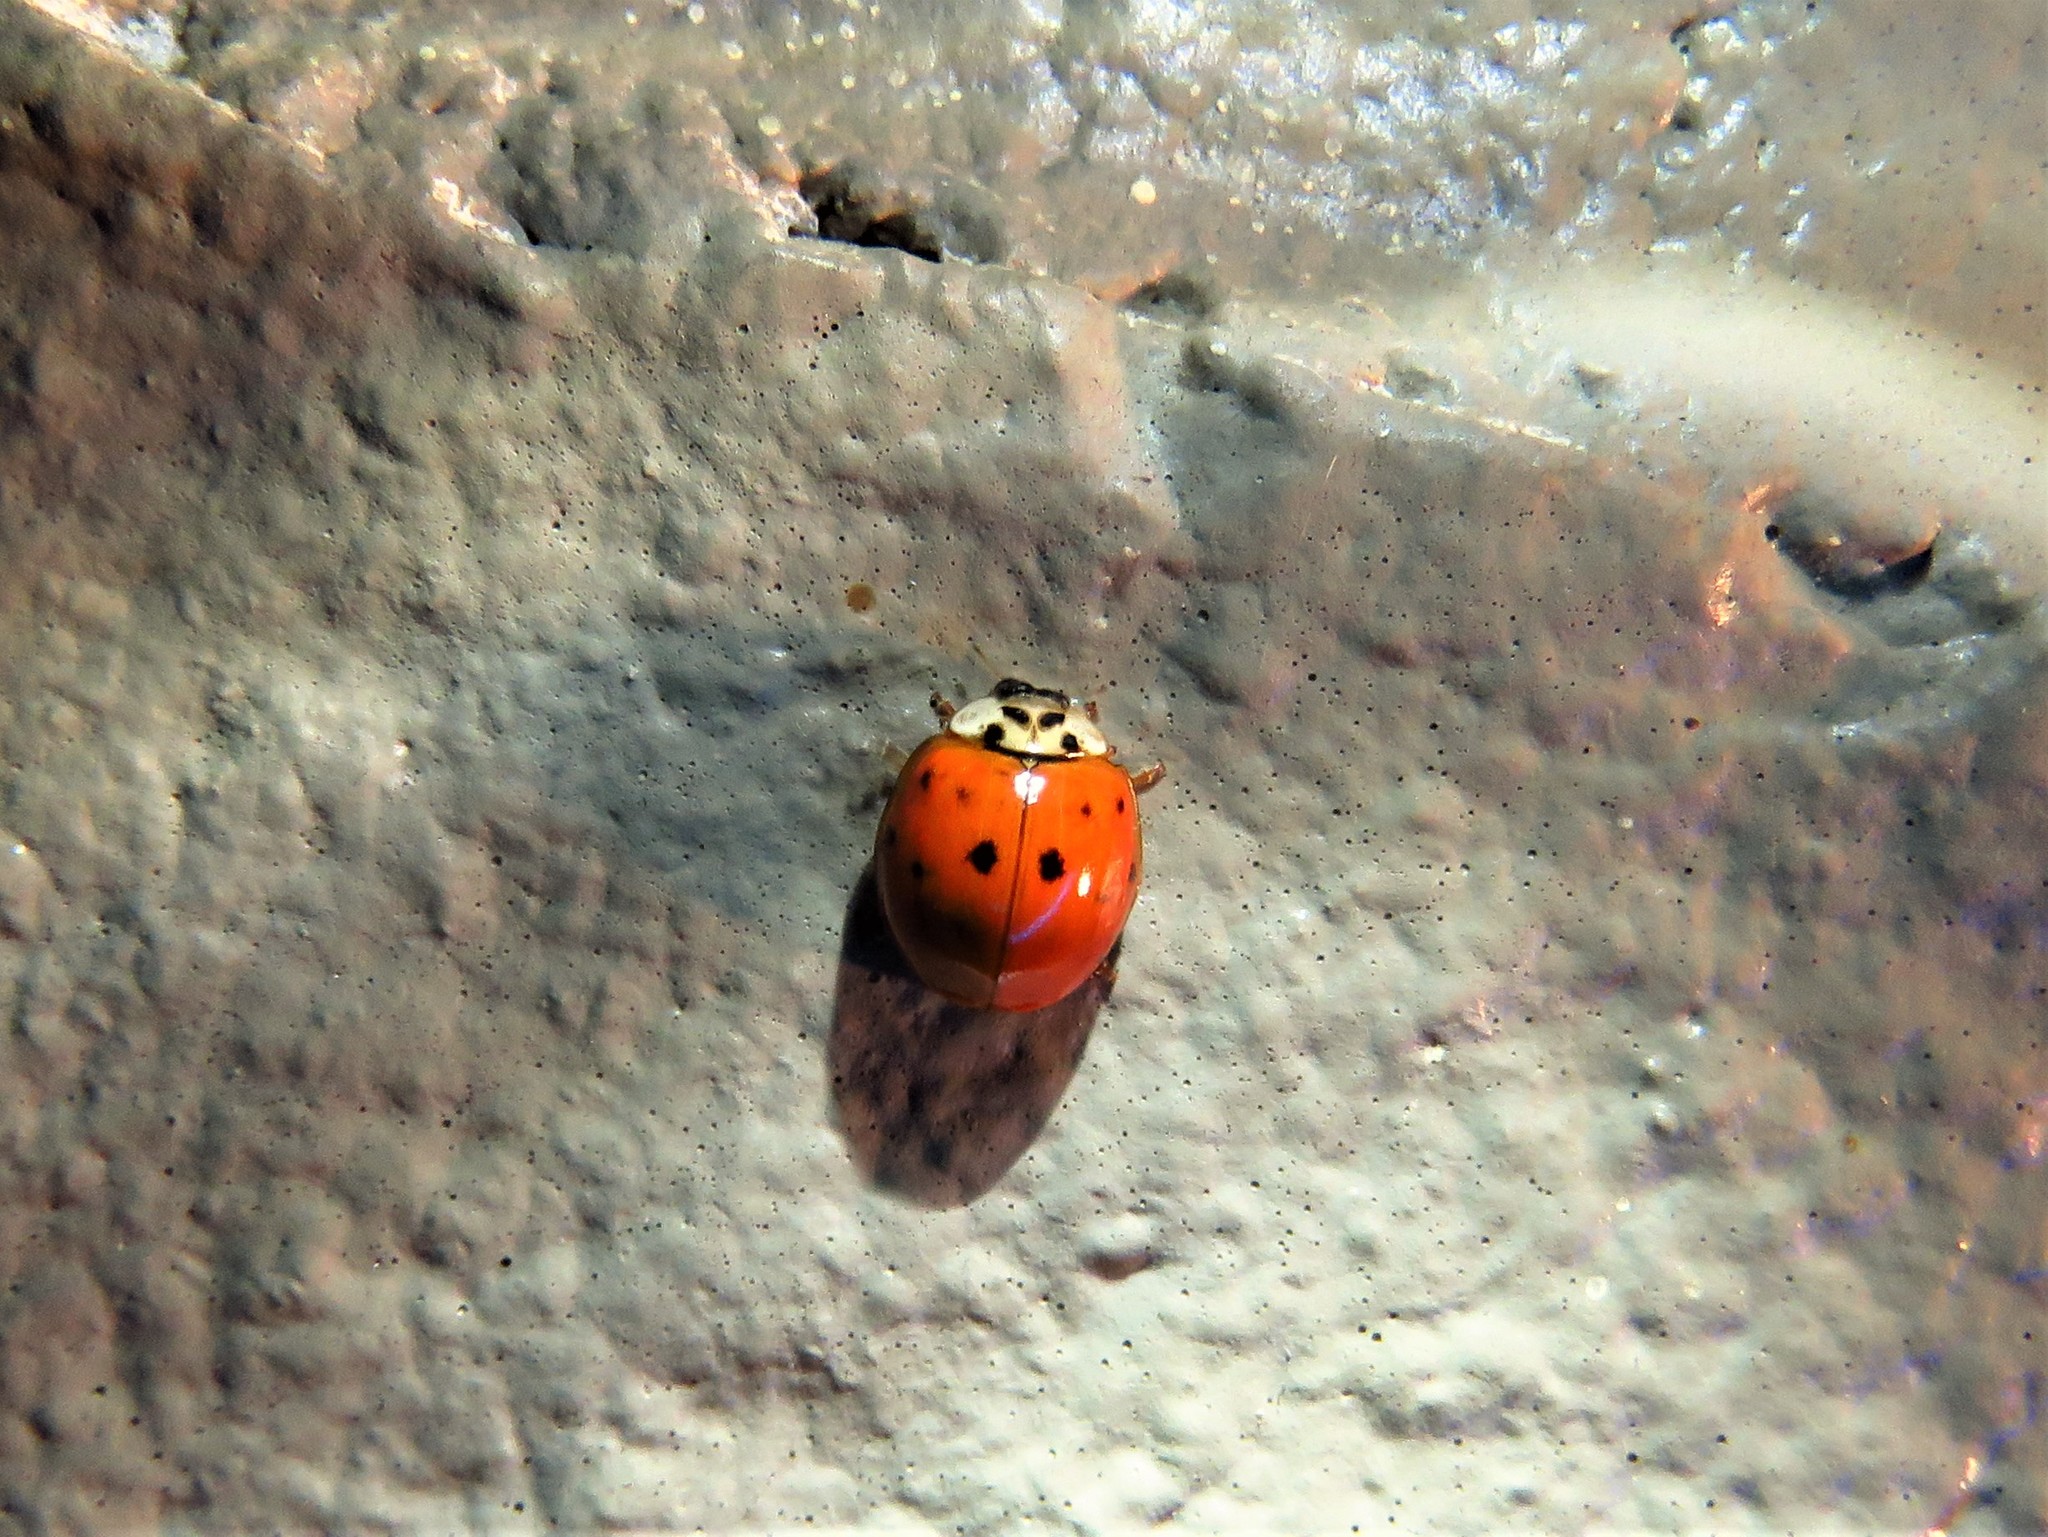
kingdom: Animalia
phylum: Arthropoda
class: Insecta
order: Coleoptera
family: Coccinellidae
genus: Harmonia
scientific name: Harmonia axyridis
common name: Harlequin ladybird
